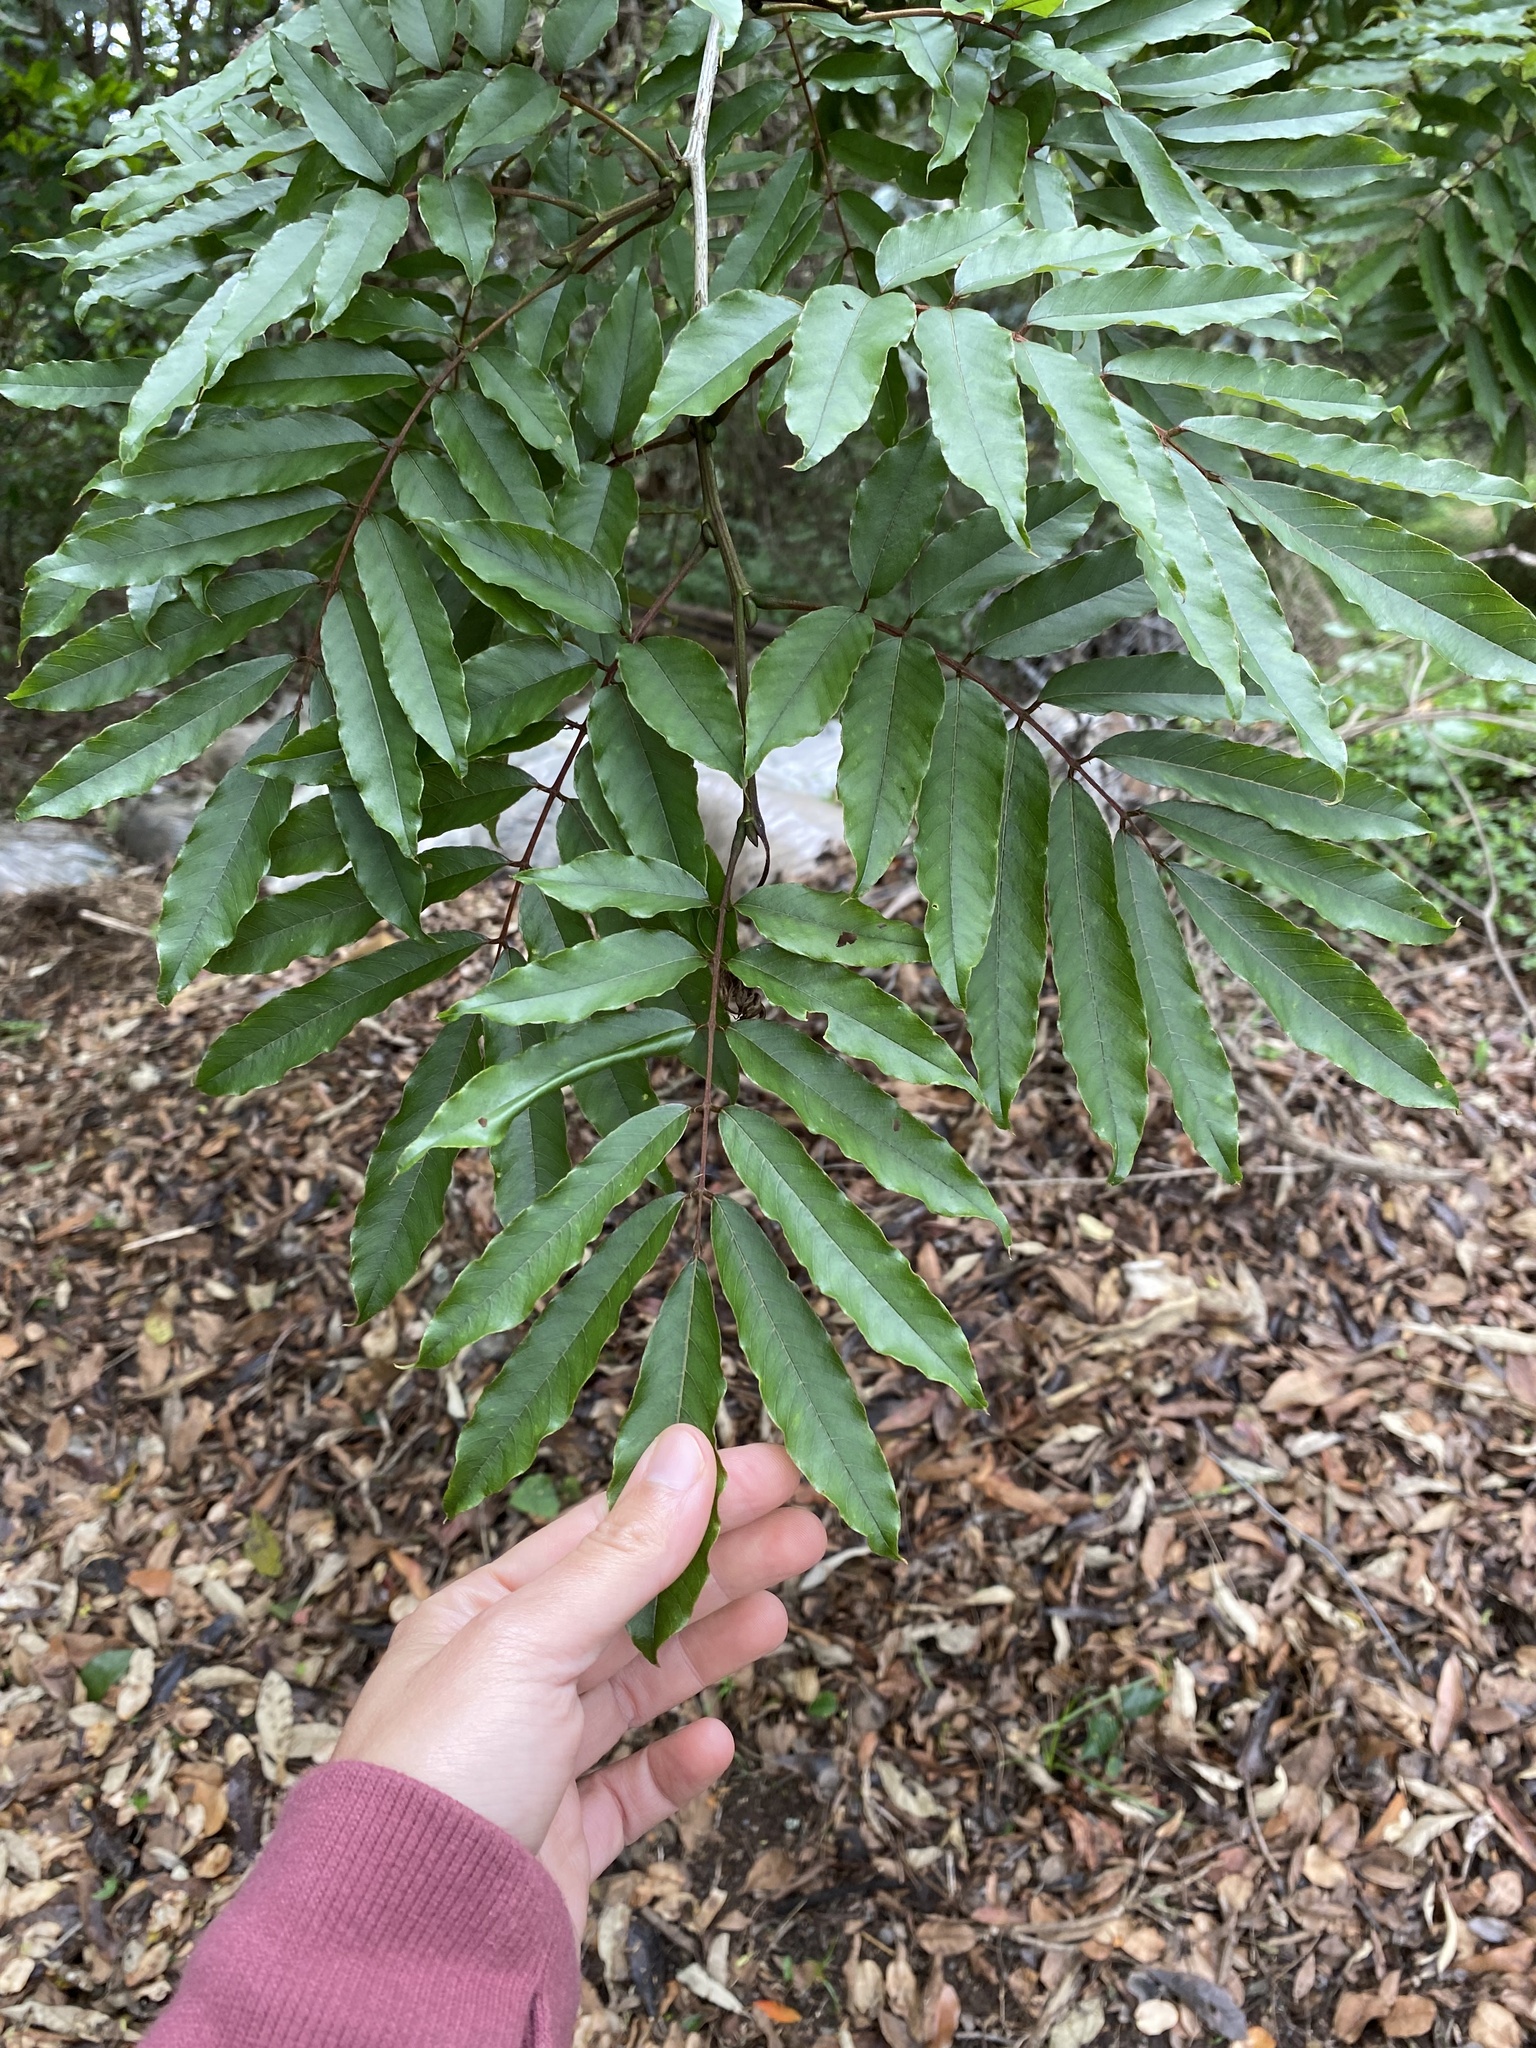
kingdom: Plantae
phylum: Tracheophyta
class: Magnoliopsida
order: Fabales
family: Fabaceae
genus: Millettia
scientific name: Millettia grandis
